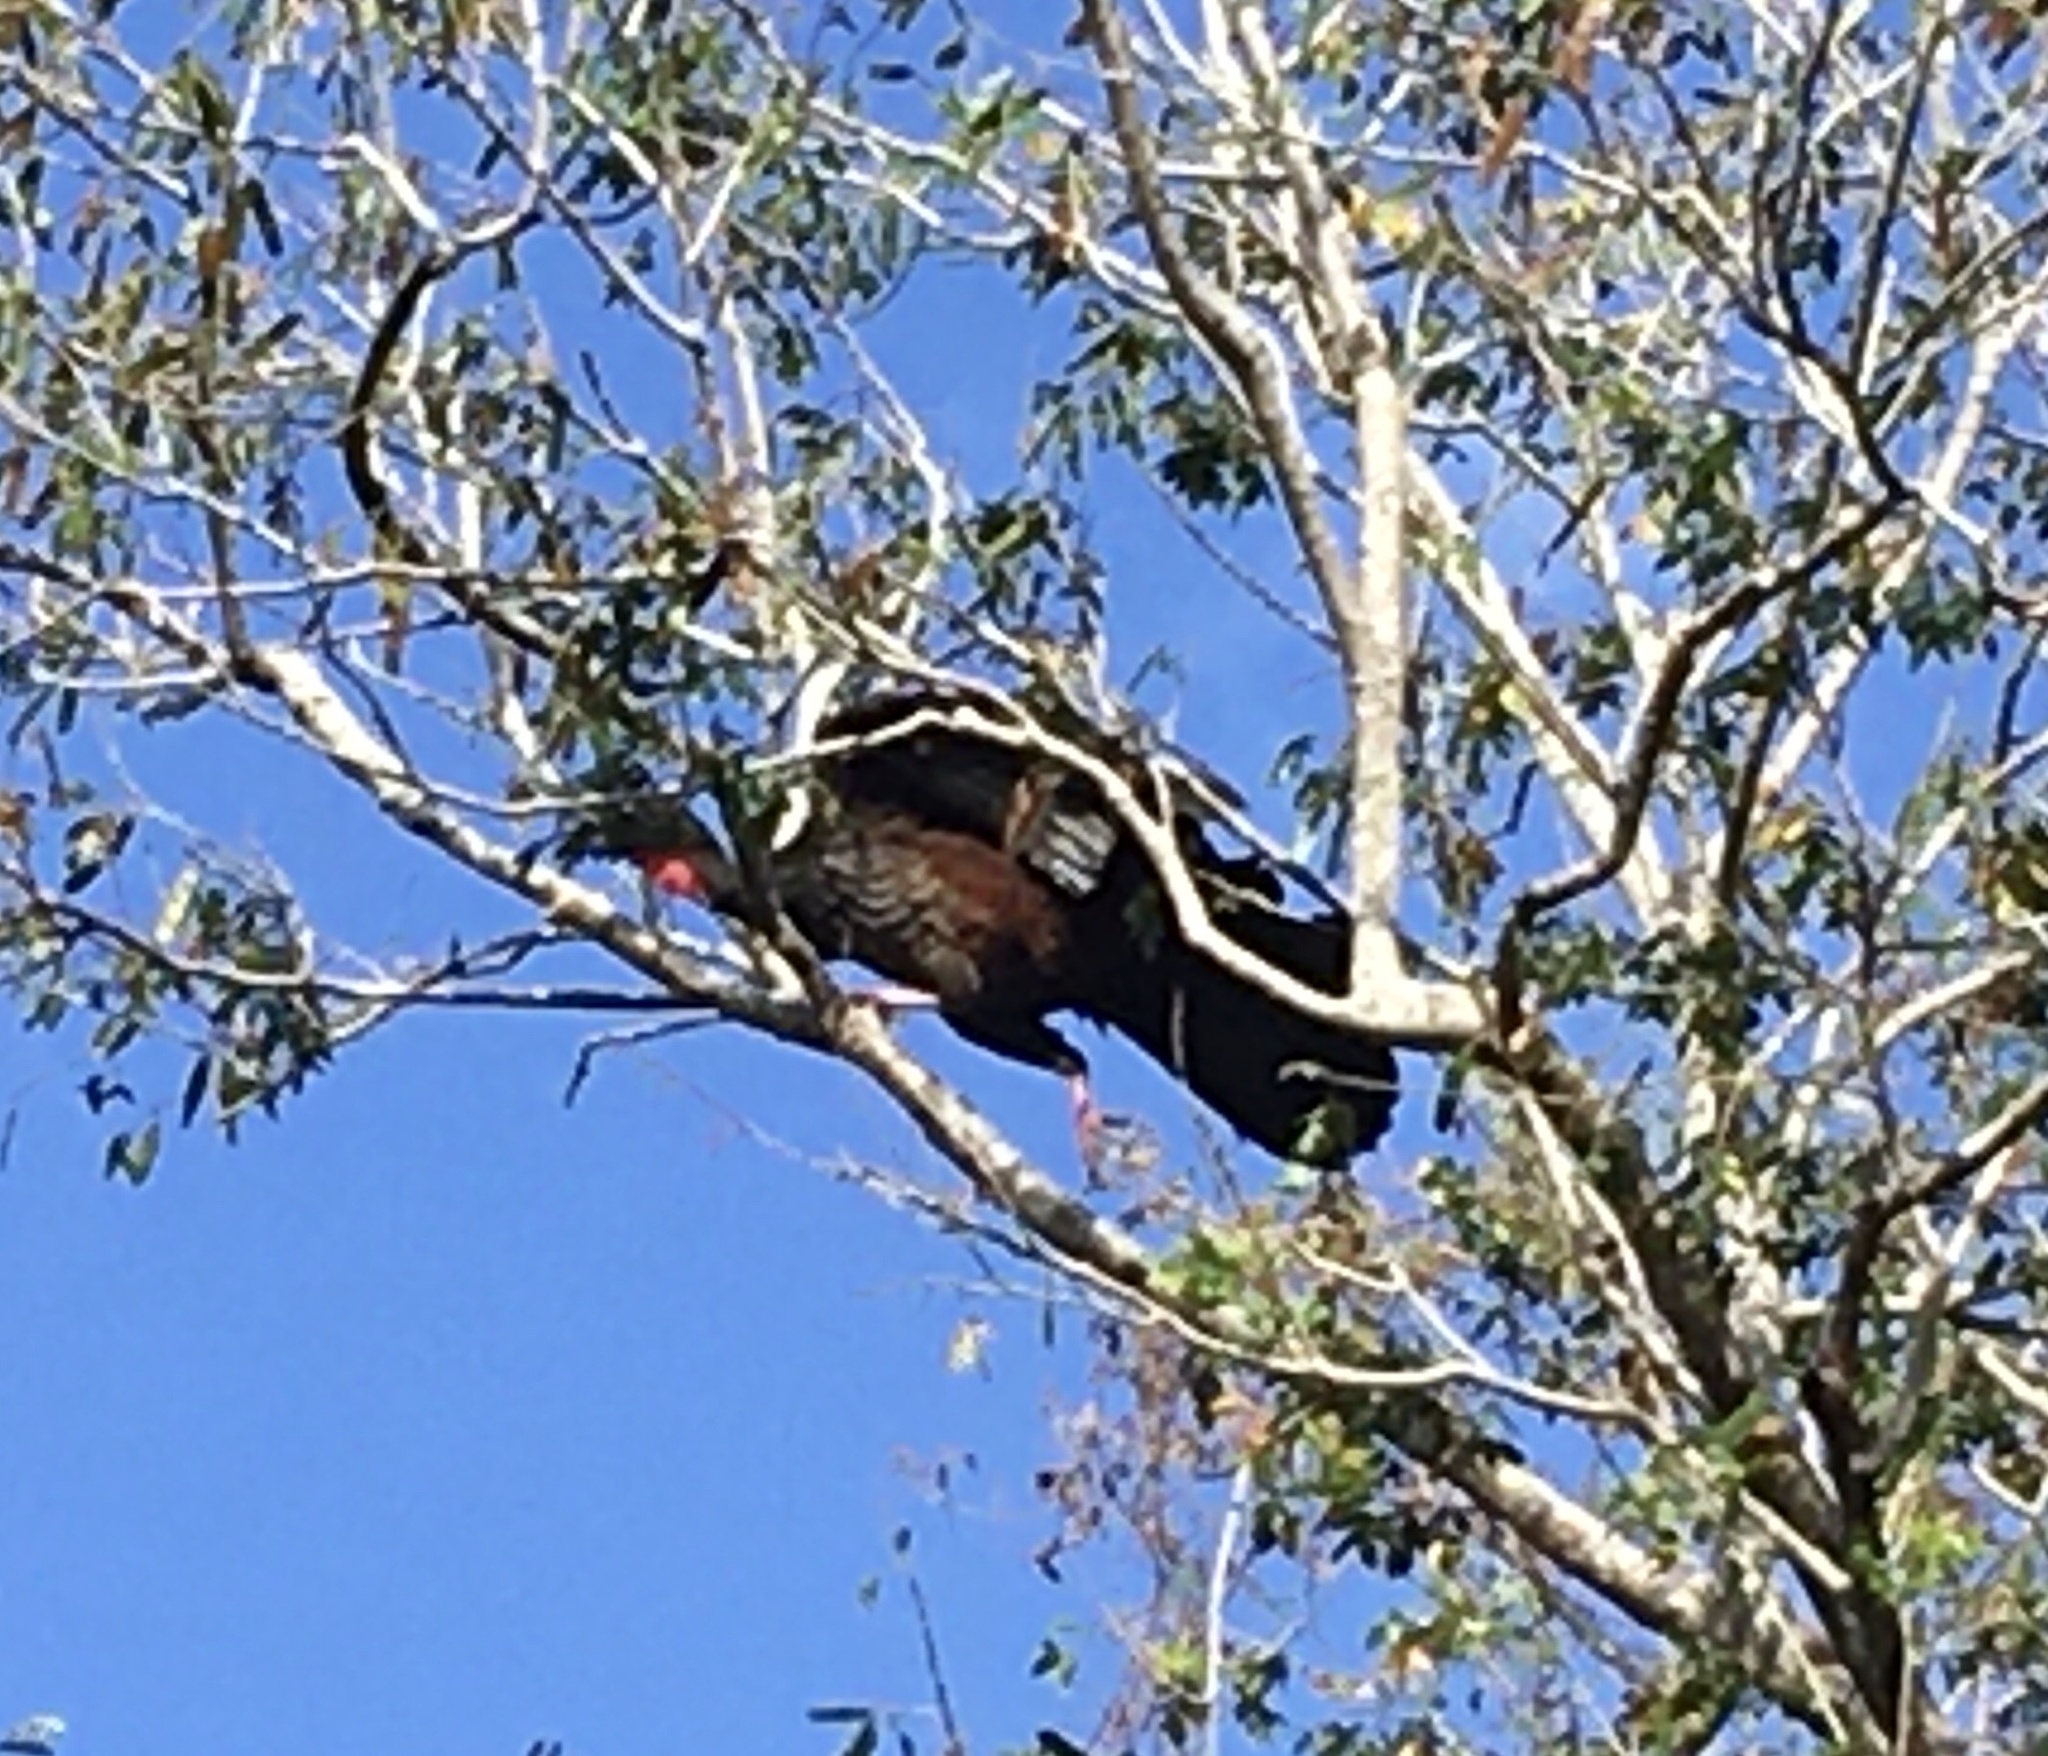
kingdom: Animalia
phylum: Chordata
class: Aves
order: Galliformes
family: Cracidae
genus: Penelope
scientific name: Penelope purpurascens
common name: Crested guan
